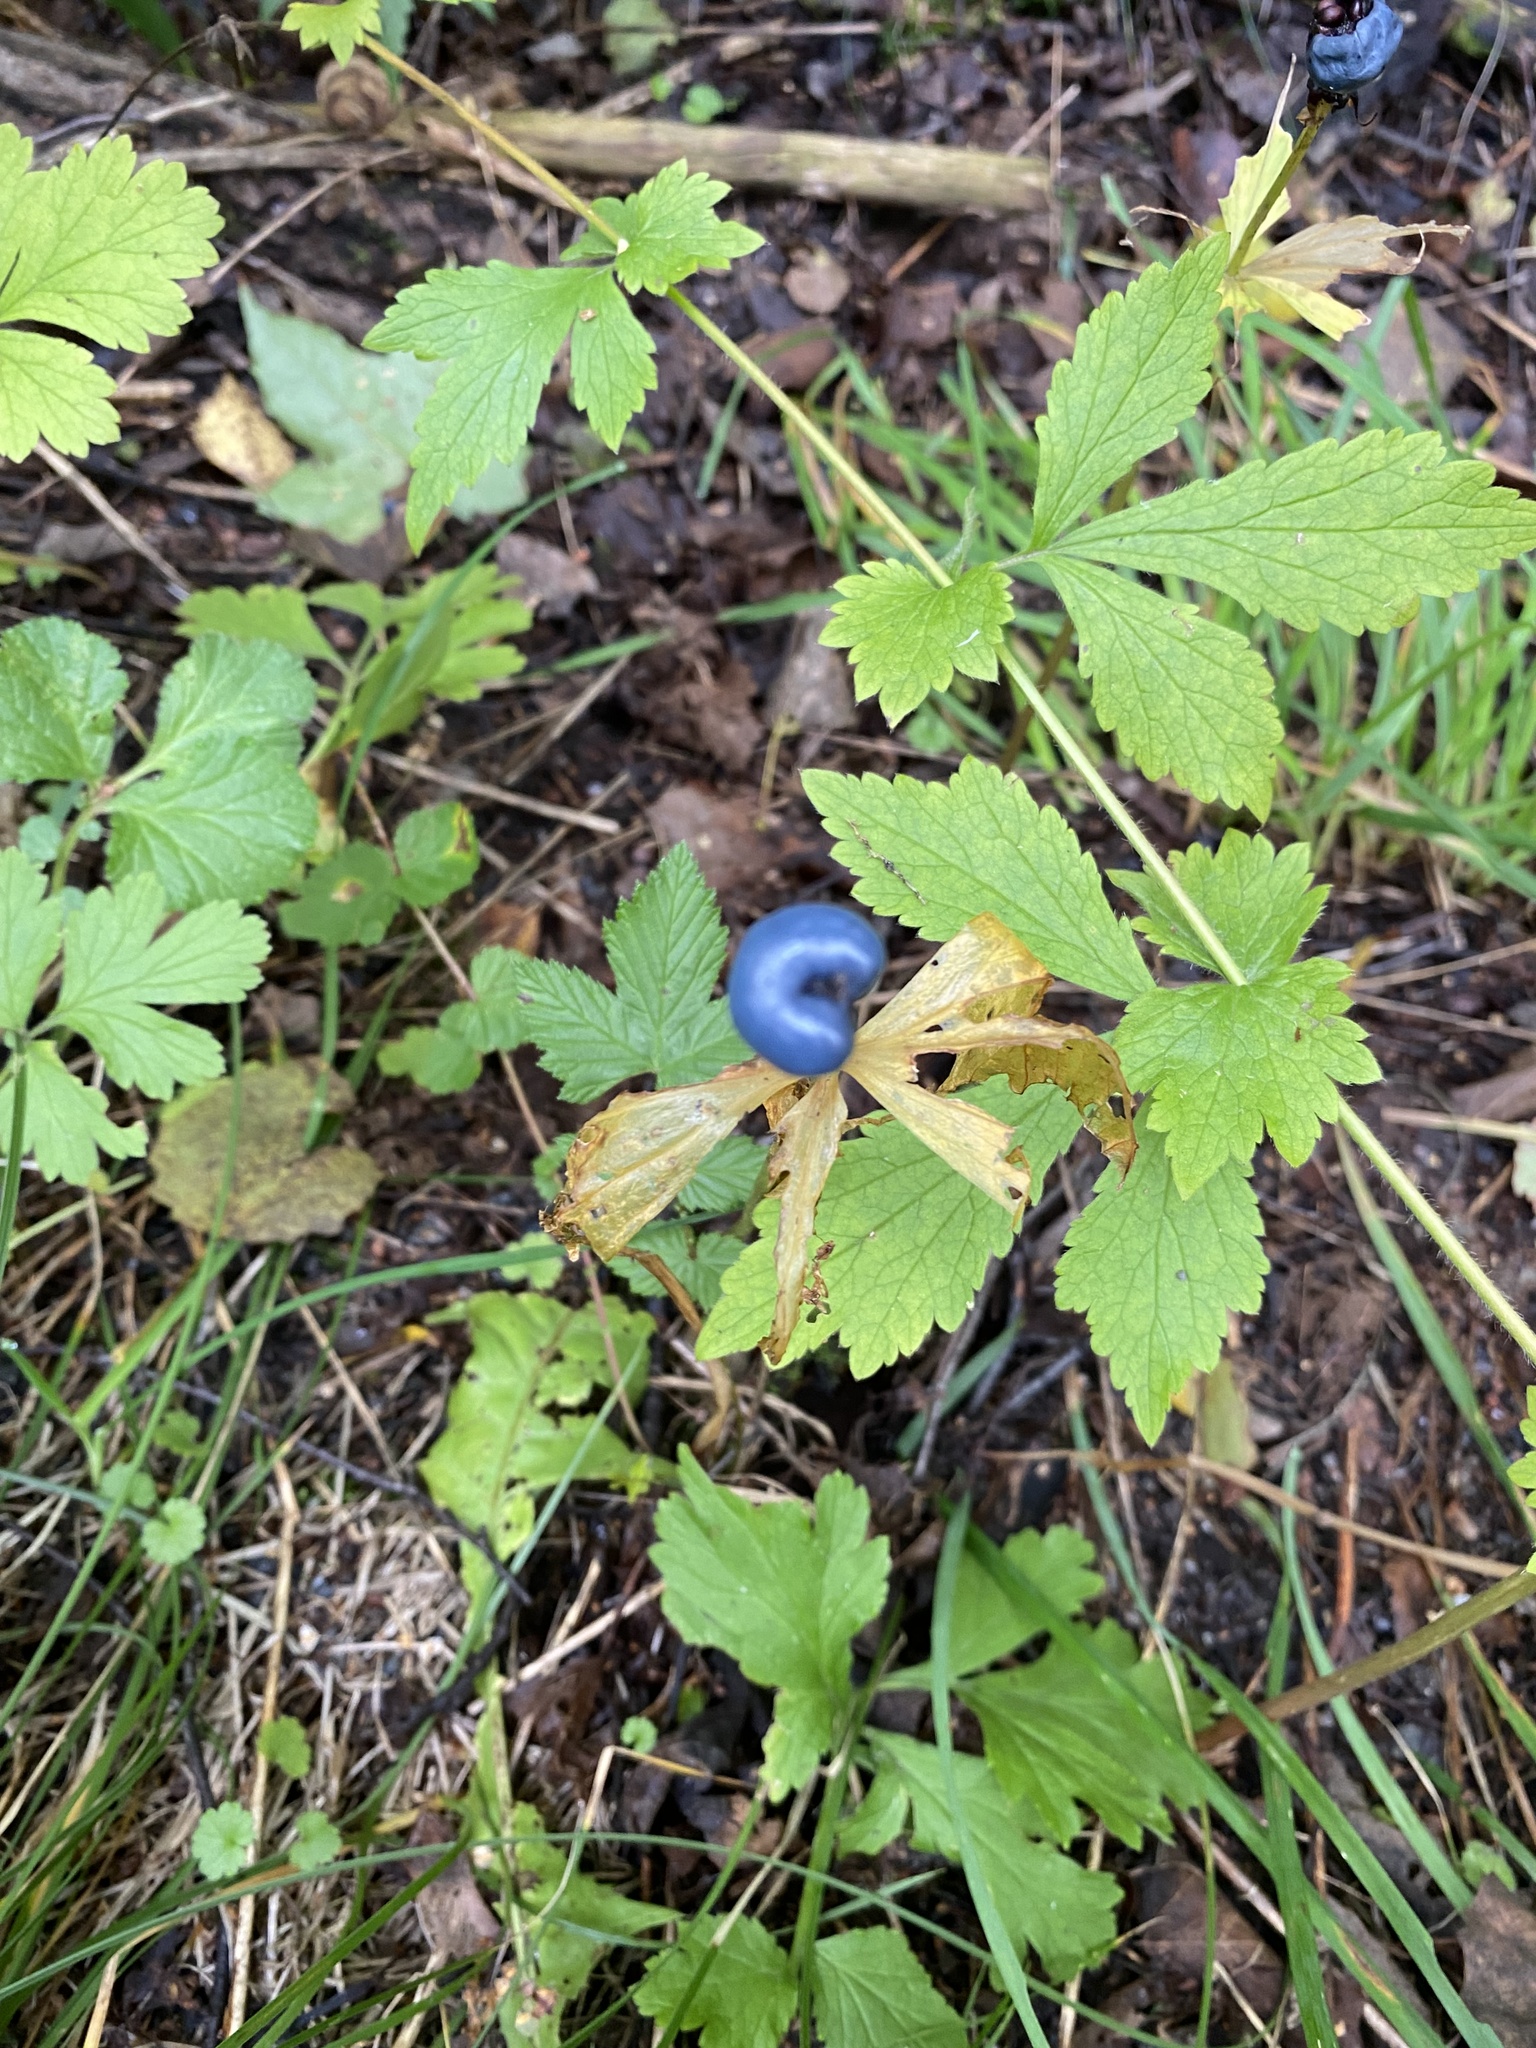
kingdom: Plantae
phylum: Tracheophyta
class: Liliopsida
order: Liliales
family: Melanthiaceae
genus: Paris
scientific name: Paris quadrifolia
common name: Herb-paris
